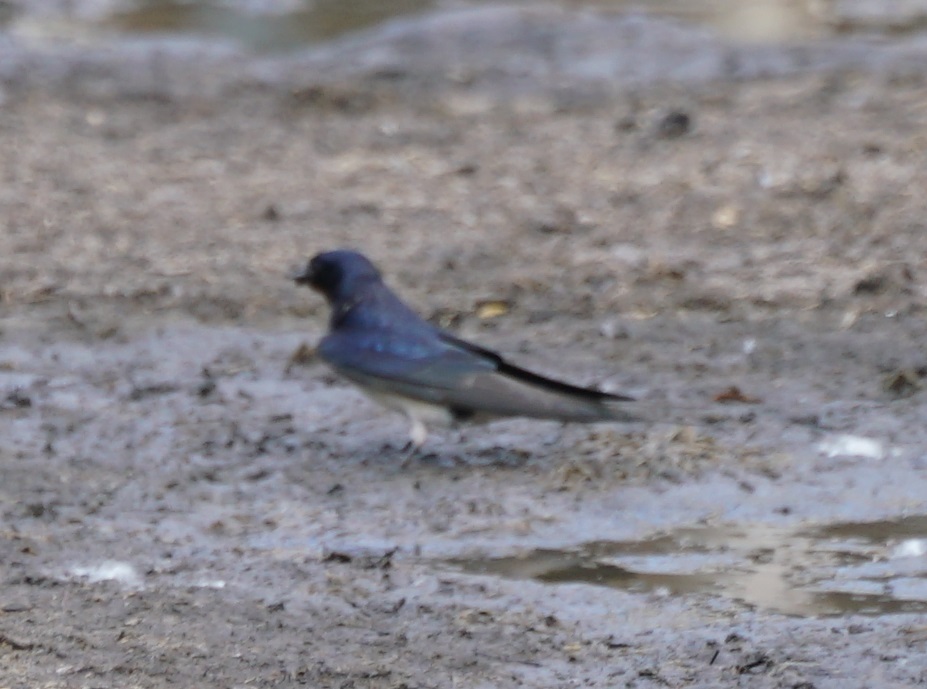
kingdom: Animalia
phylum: Chordata
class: Aves
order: Passeriformes
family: Hirundinidae
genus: Hirundo
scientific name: Hirundo rustica
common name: Barn swallow
